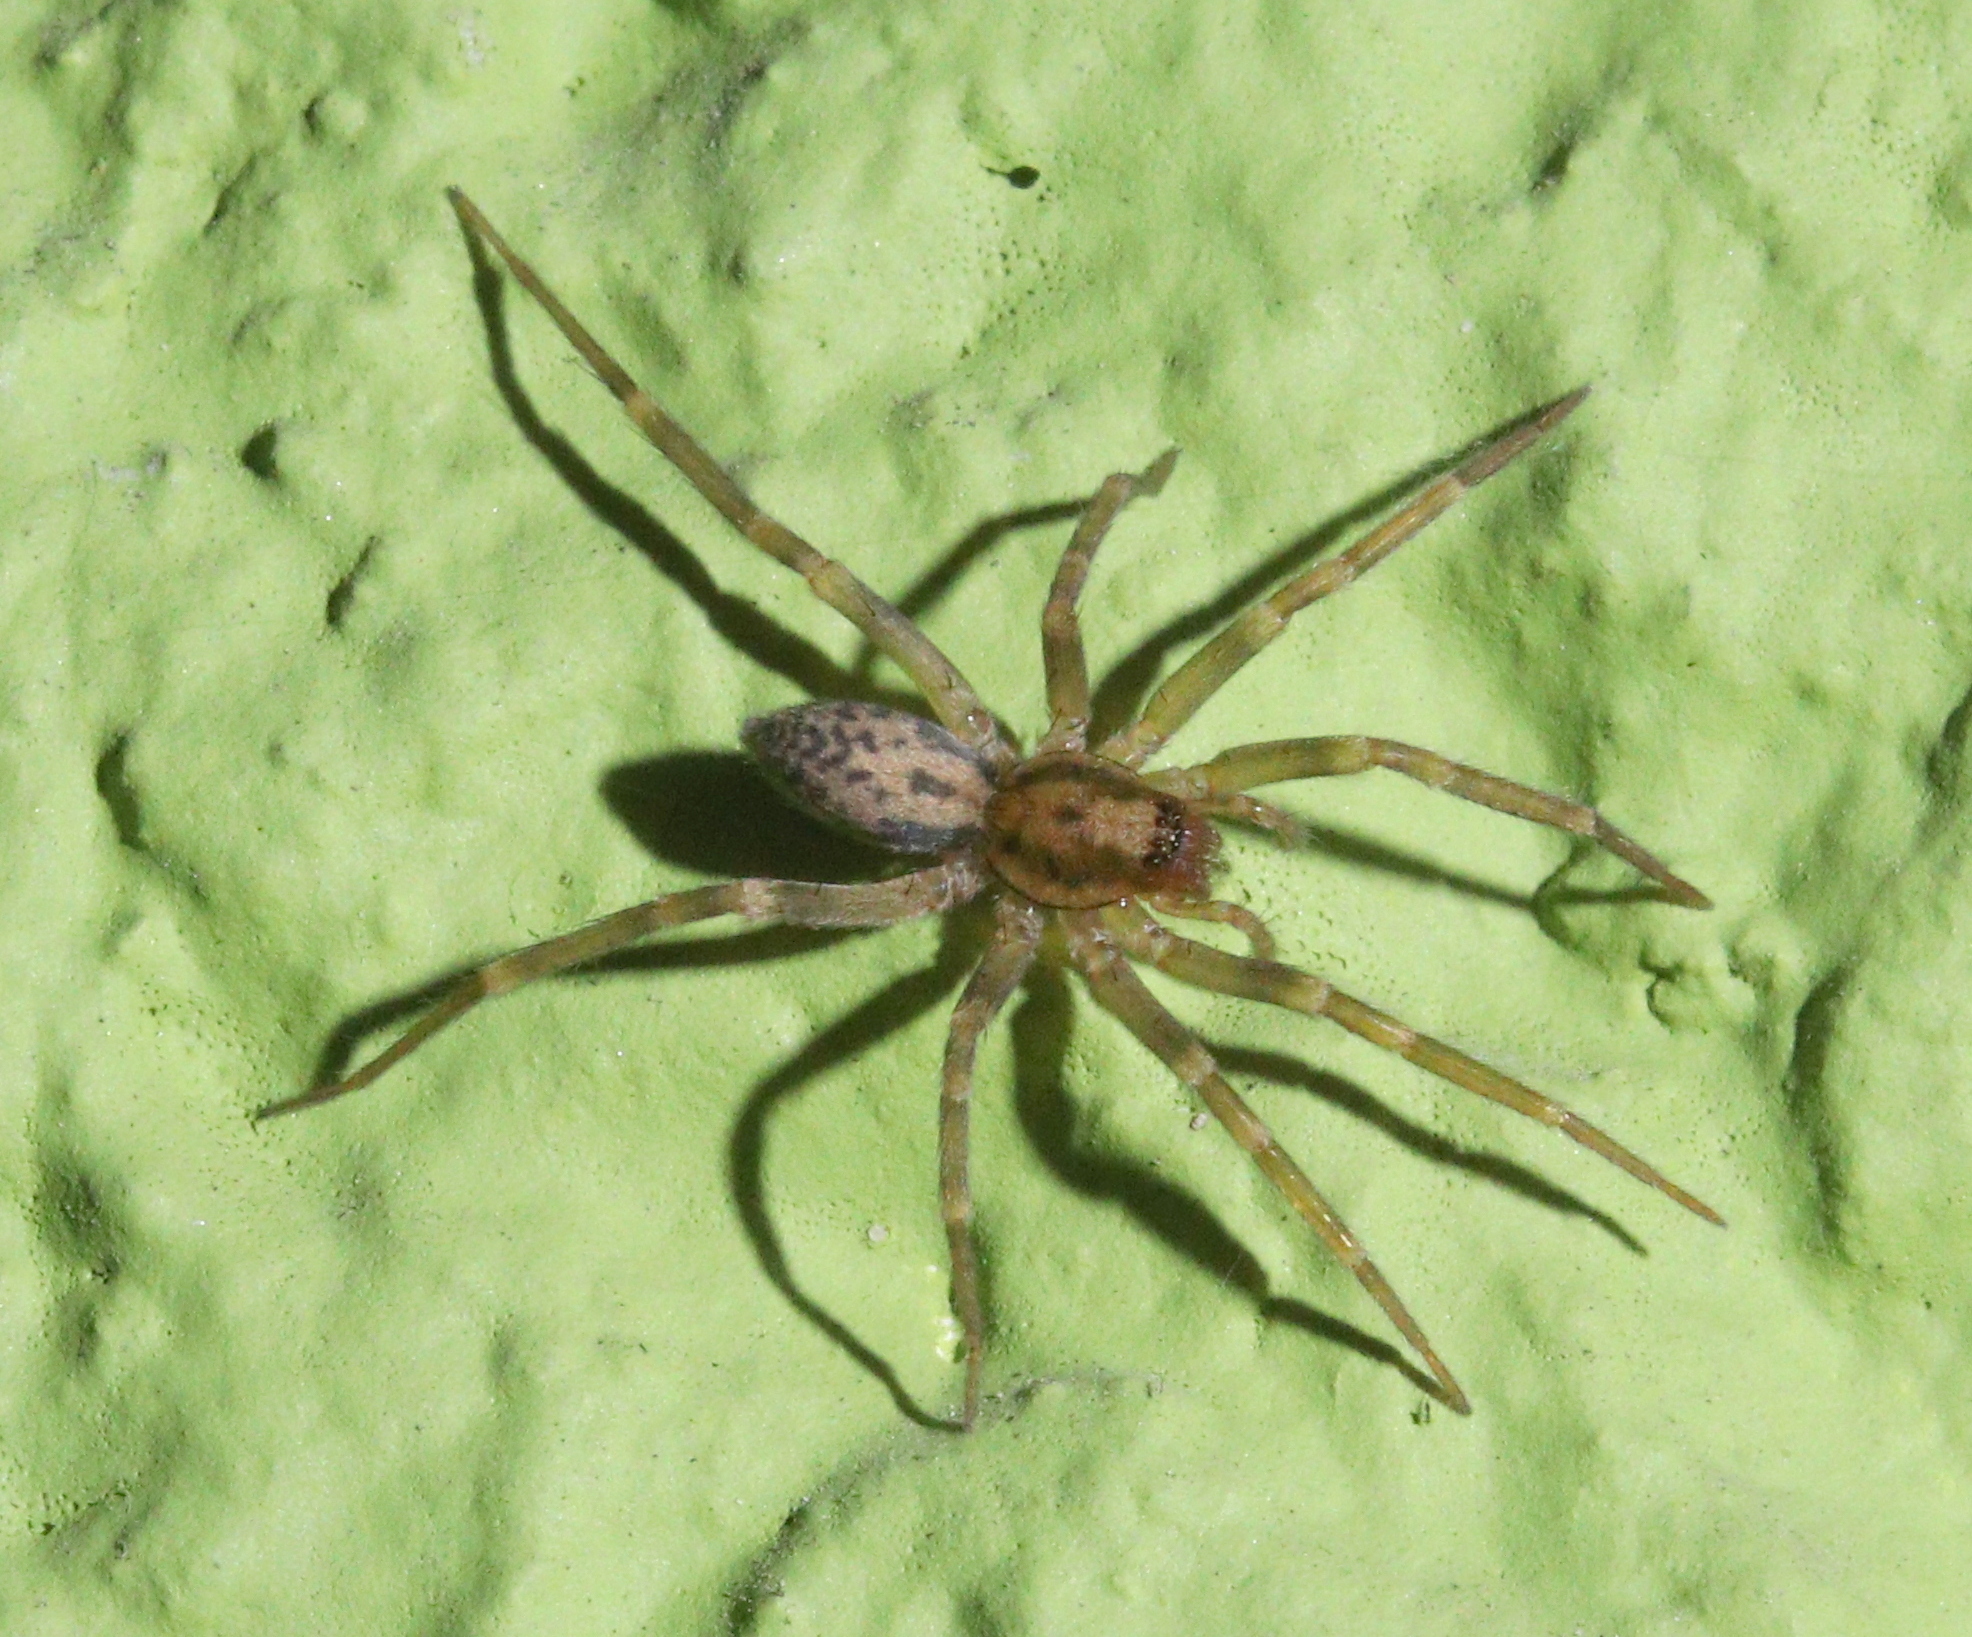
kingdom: Animalia
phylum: Arthropoda
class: Arachnida
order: Araneae
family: Liocranidae
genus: Liocranum
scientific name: Liocranum rupicola
